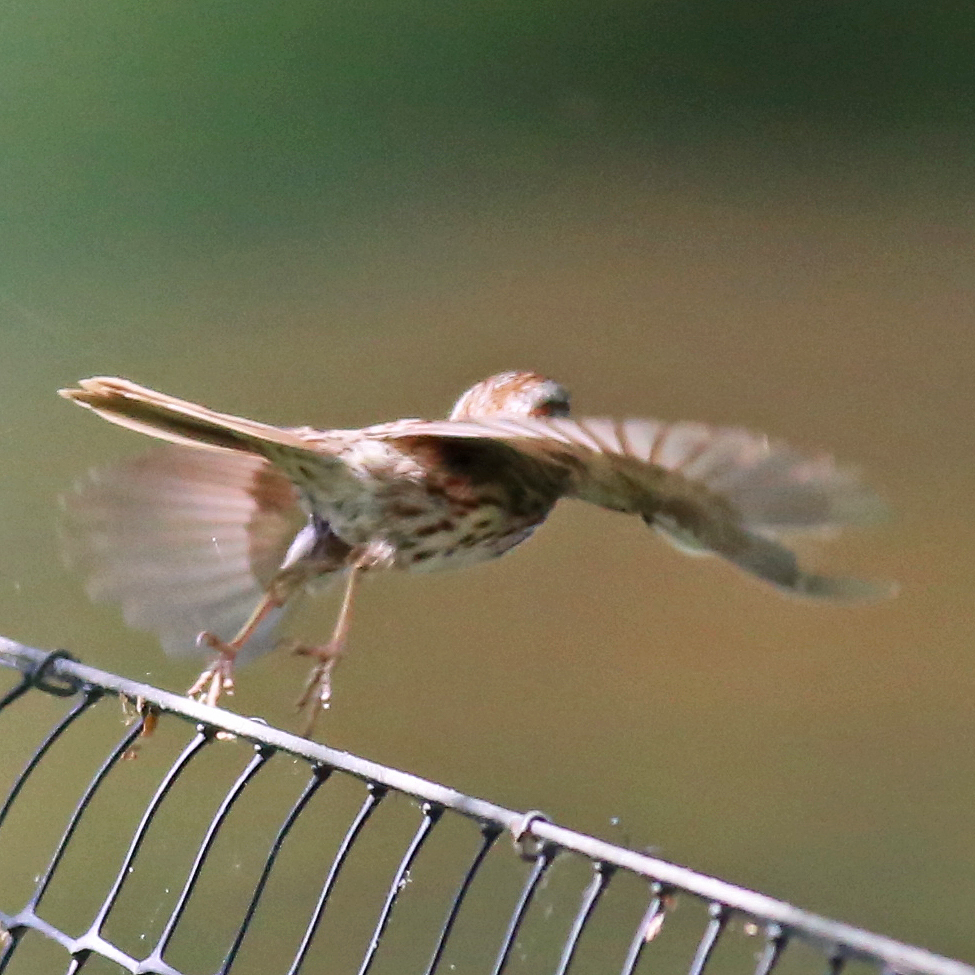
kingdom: Animalia
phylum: Chordata
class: Aves
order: Passeriformes
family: Passerellidae
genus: Melospiza
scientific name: Melospiza melodia
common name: Song sparrow
